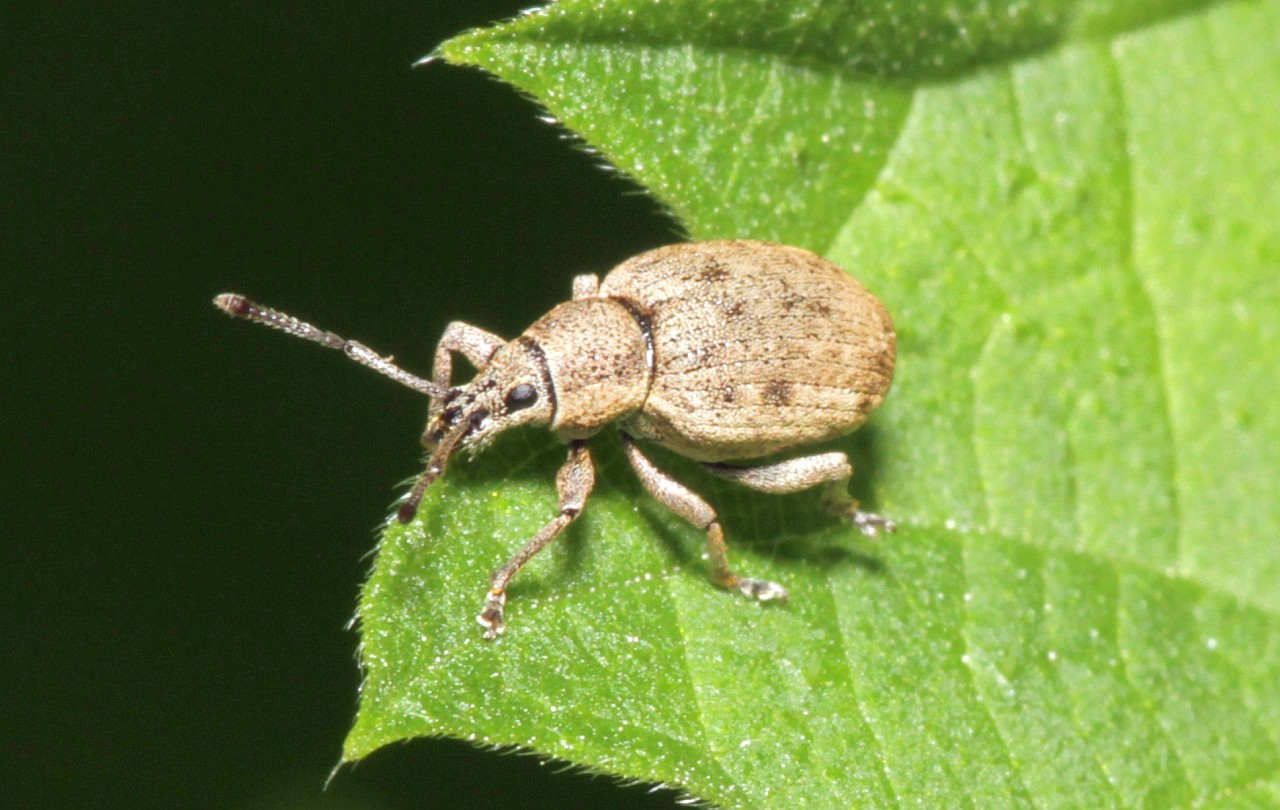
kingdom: Animalia
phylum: Arthropoda
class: Insecta
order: Coleoptera
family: Curculionidae
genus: Peritelus
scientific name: Peritelus sphaeroides
